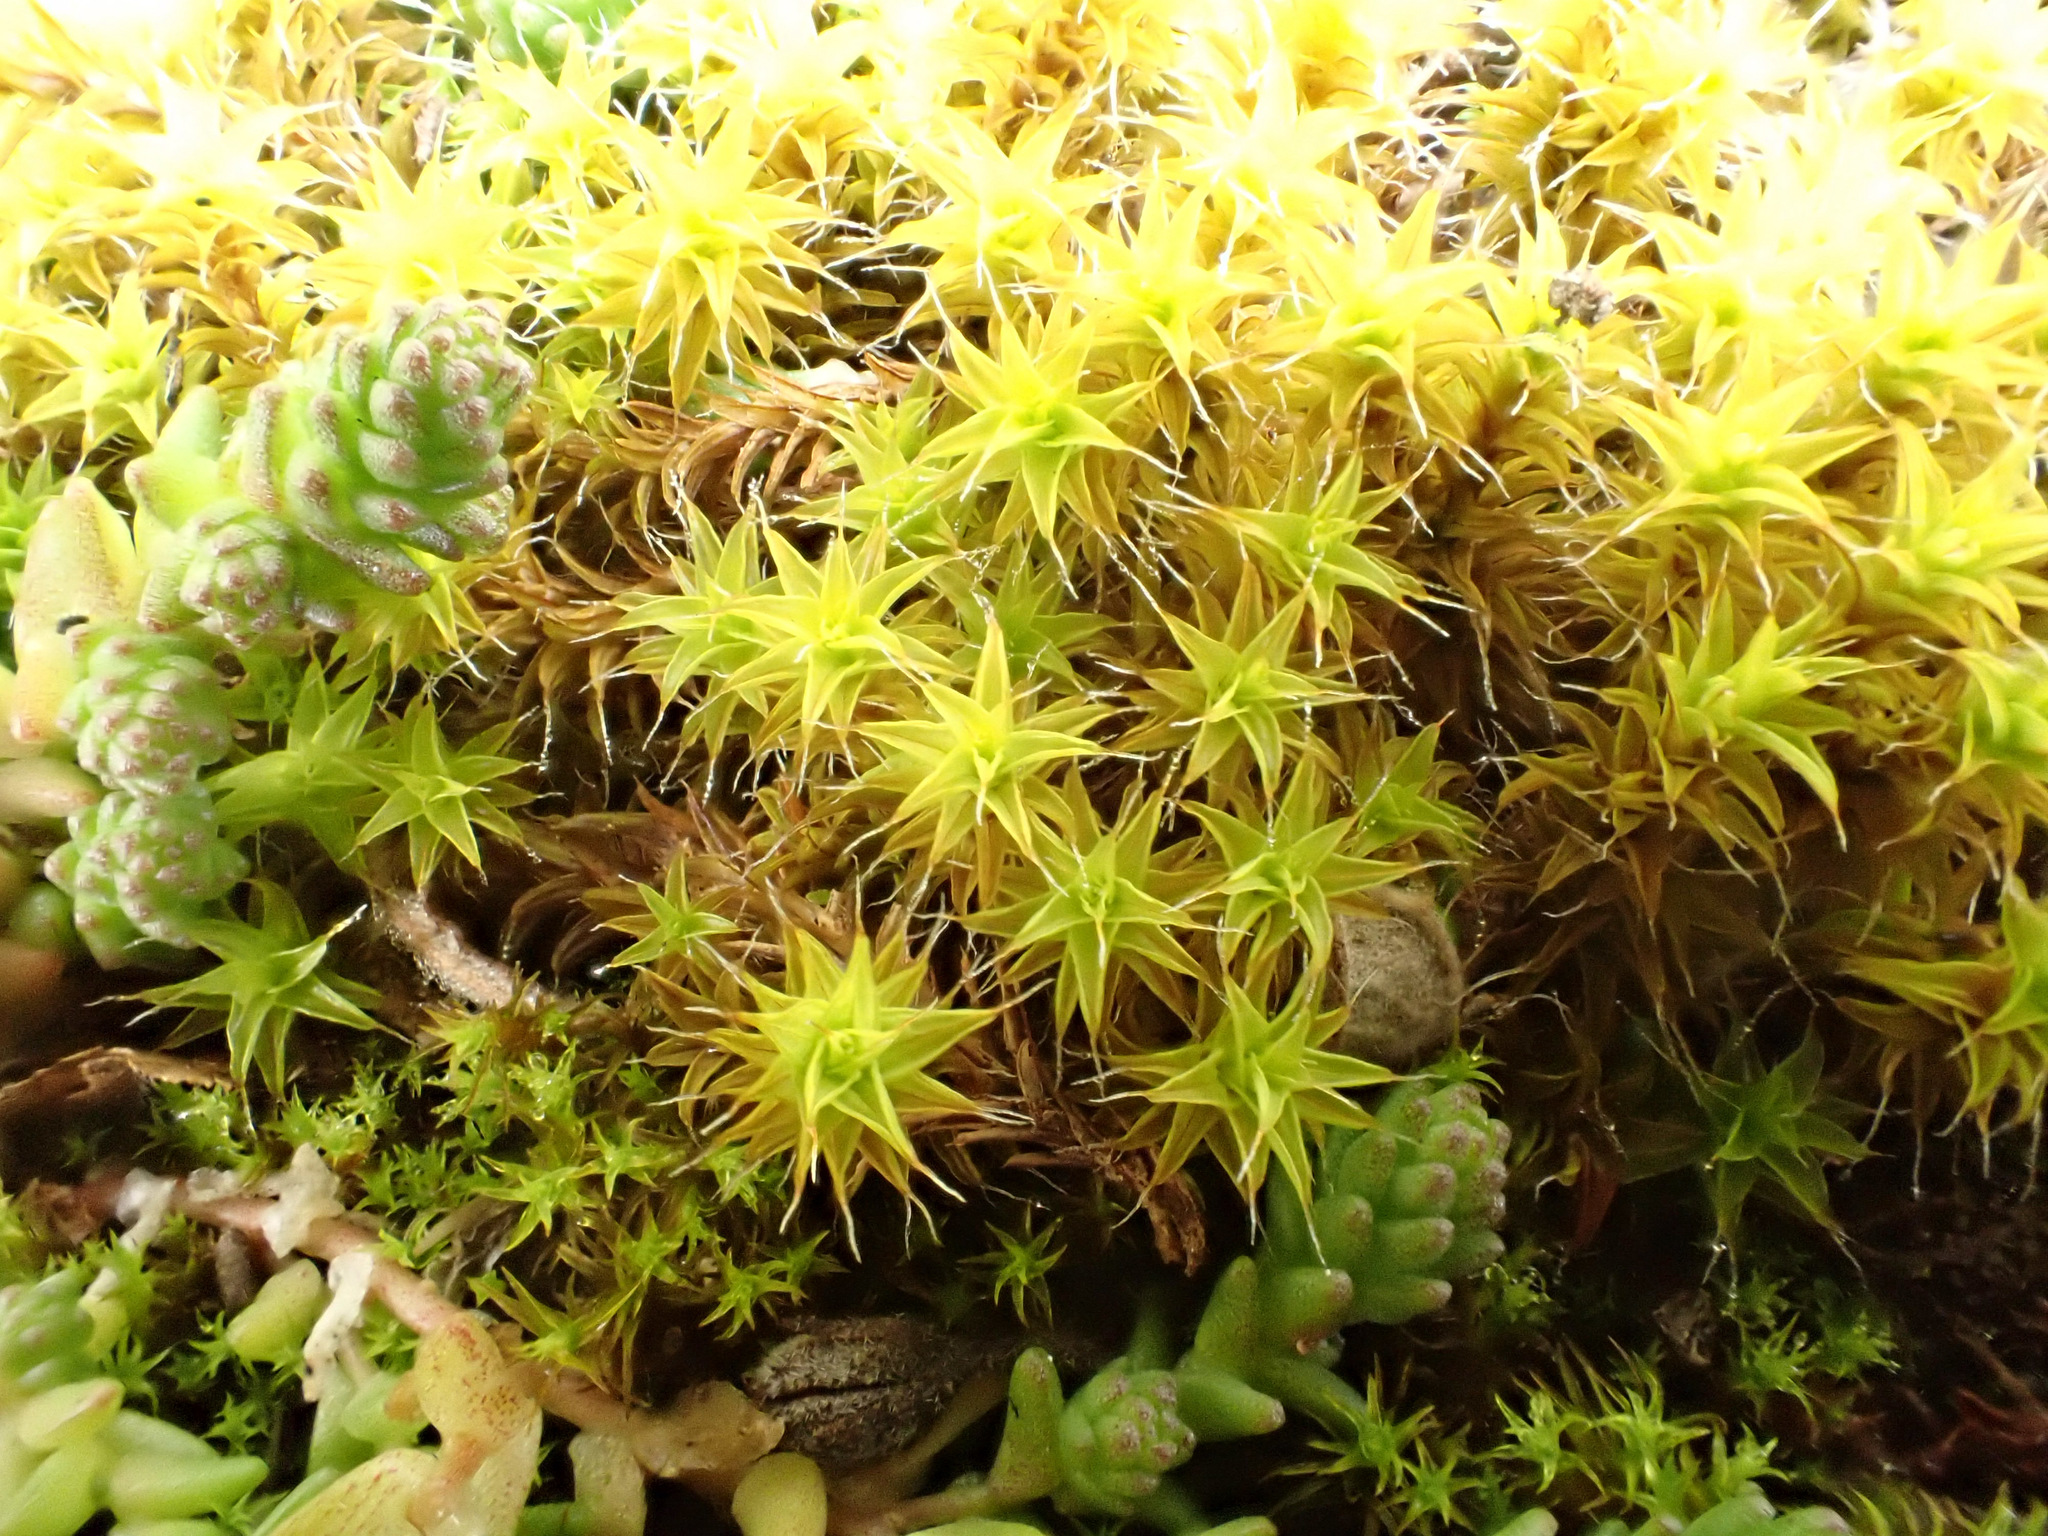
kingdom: Plantae
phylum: Bryophyta
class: Bryopsida
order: Pottiales
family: Pottiaceae
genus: Syntrichia
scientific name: Syntrichia ruralis
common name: Sidewalk screw moss
